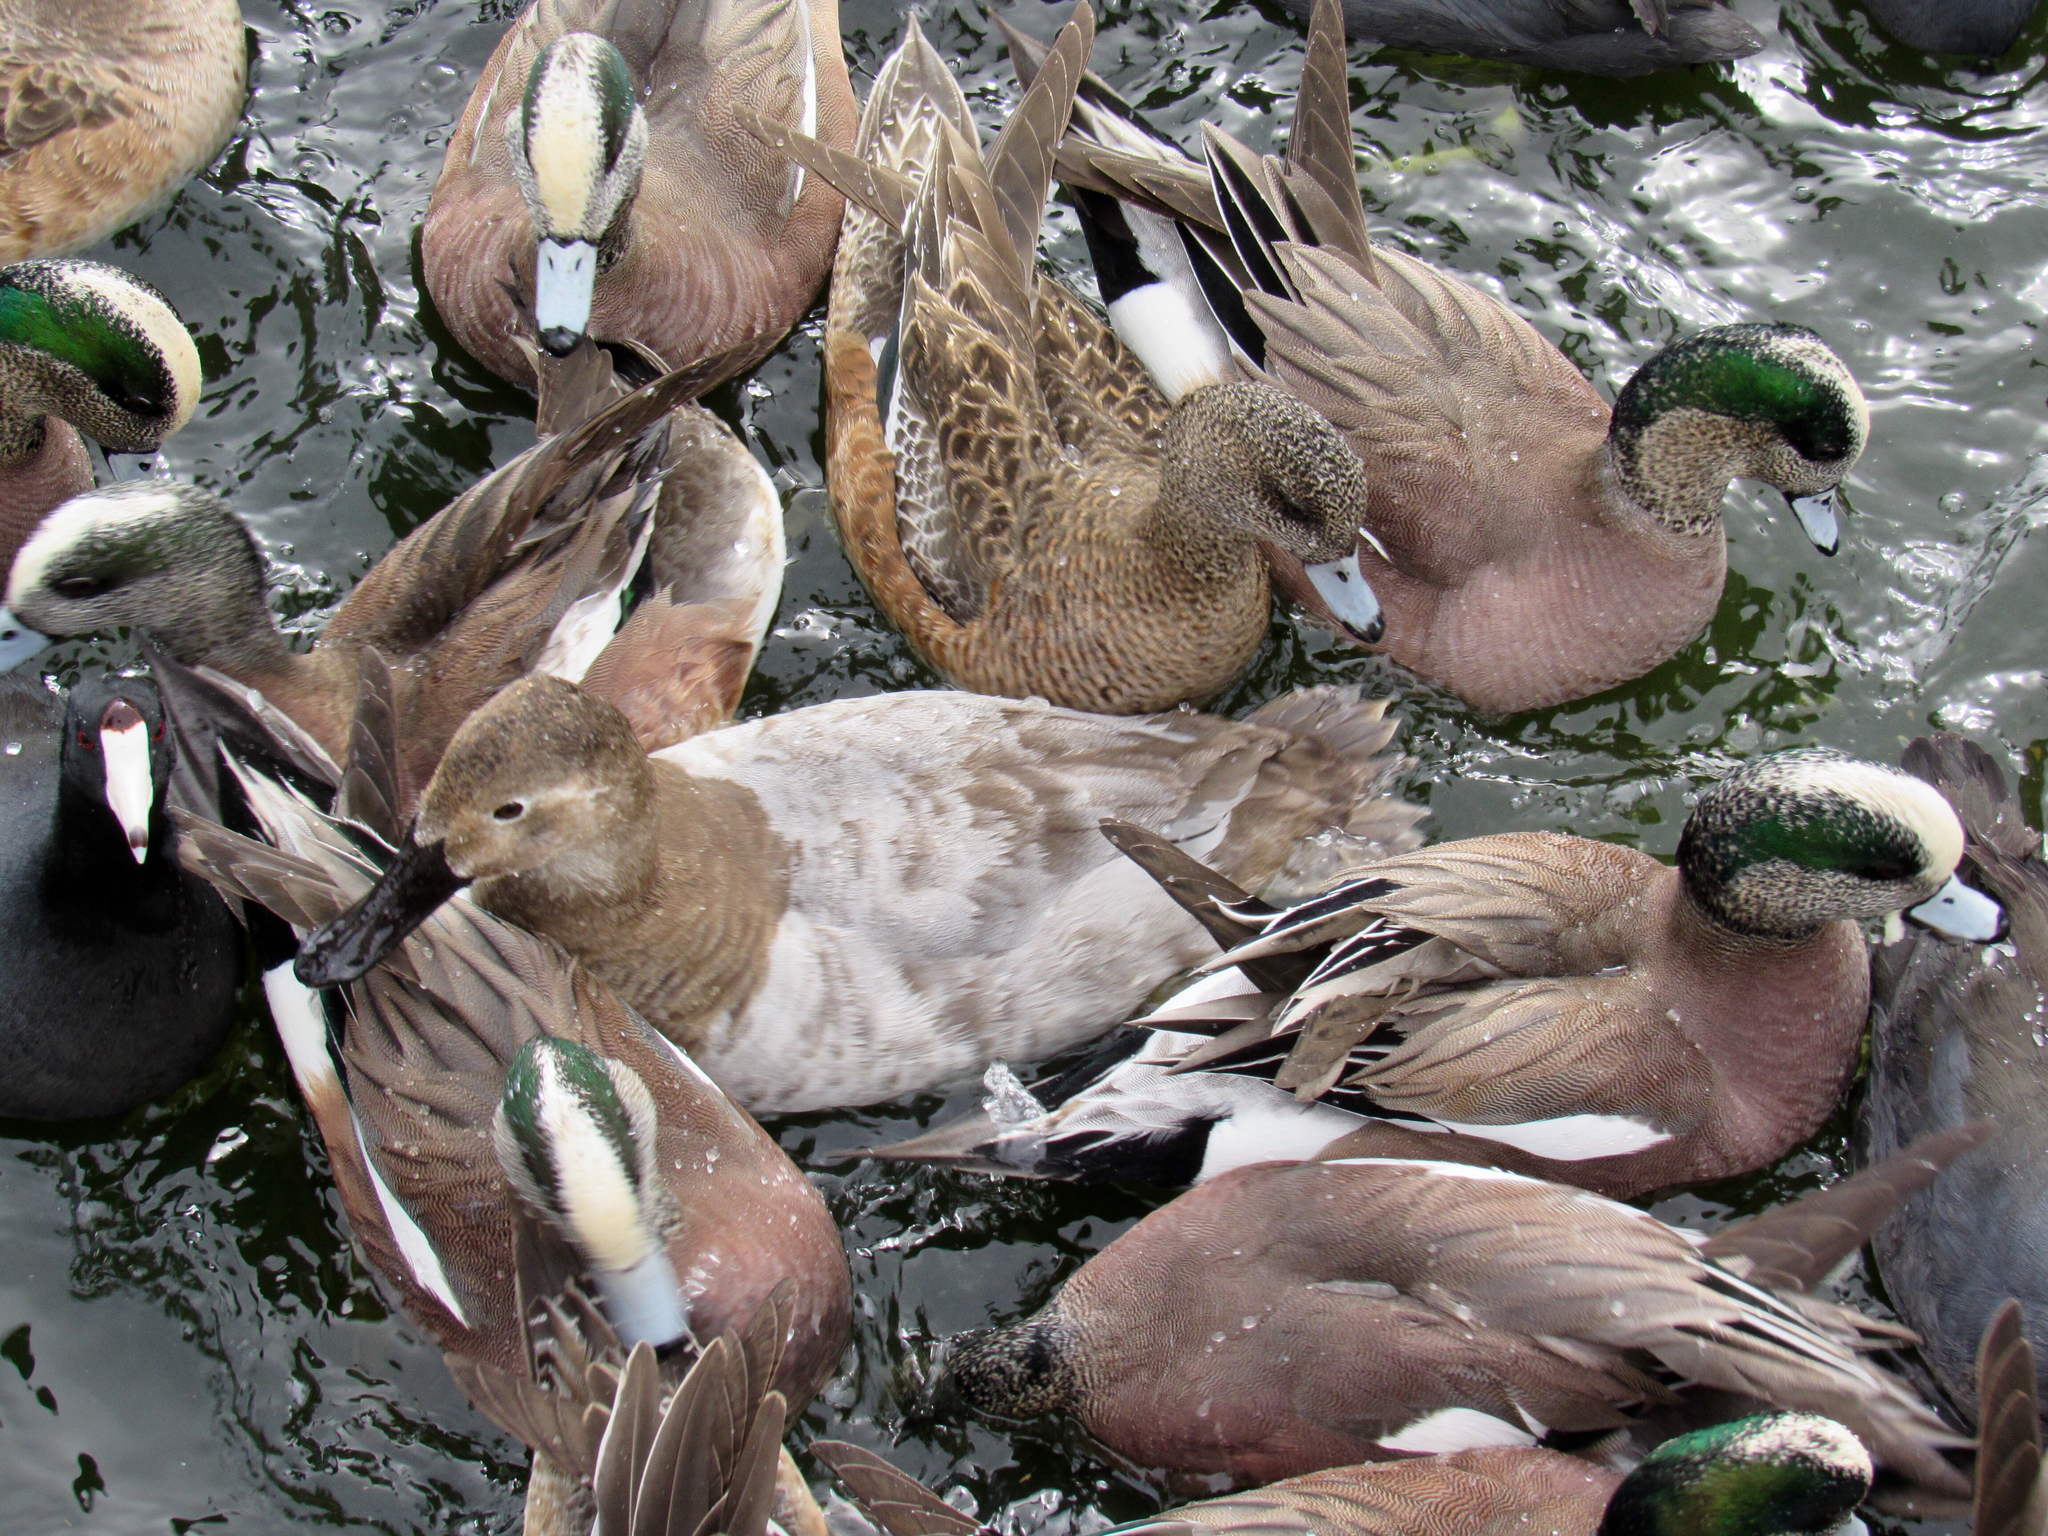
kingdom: Animalia
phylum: Chordata
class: Aves
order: Anseriformes
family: Anatidae
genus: Aythya
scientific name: Aythya valisineria
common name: Canvasback
